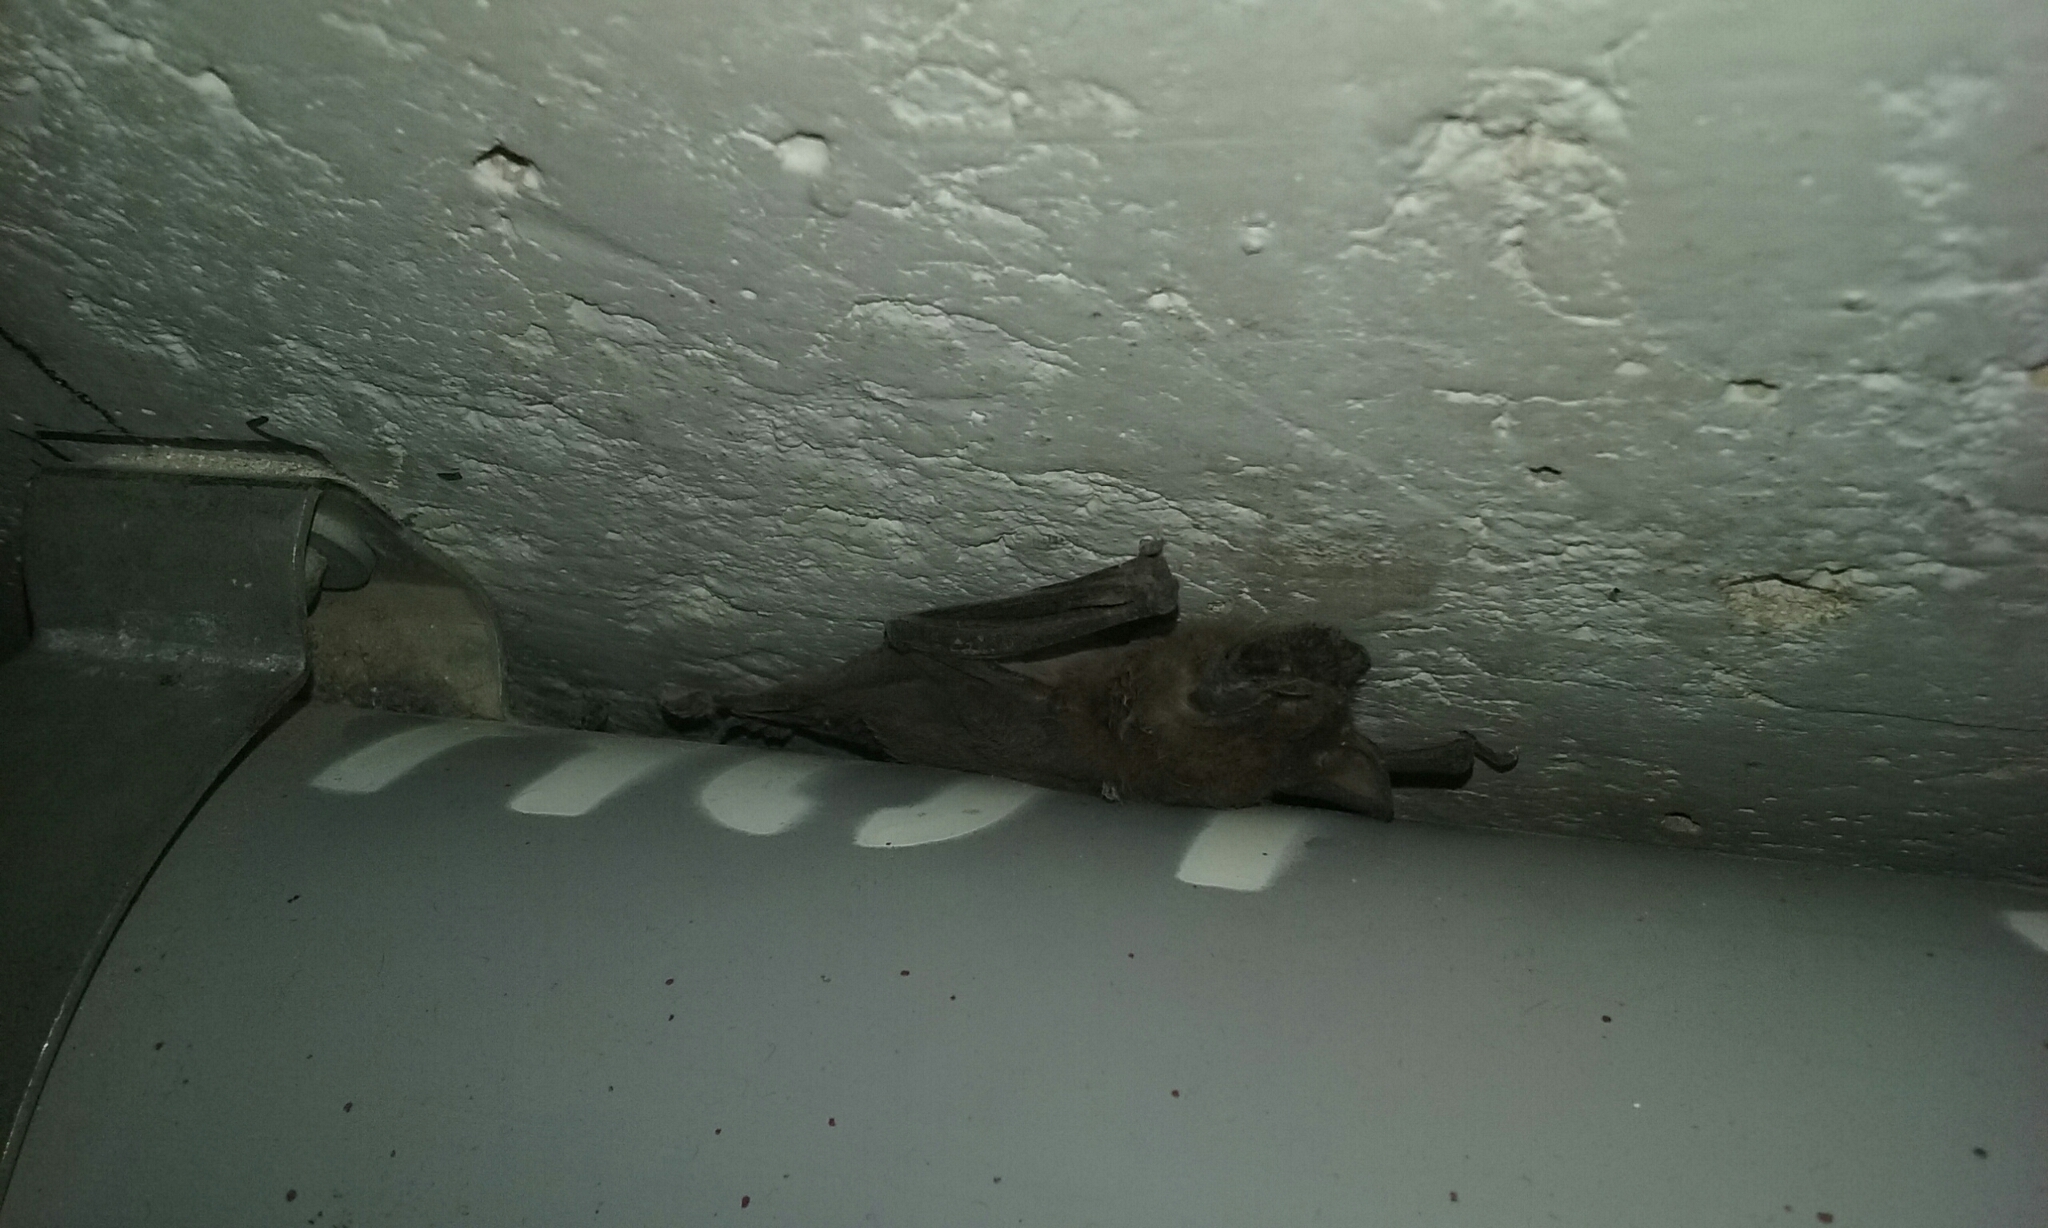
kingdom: Animalia
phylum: Chordata
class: Mammalia
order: Chiroptera
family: Molossidae
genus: Tadarida
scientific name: Tadarida brasiliensis
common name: Mexican free-tailed bat
